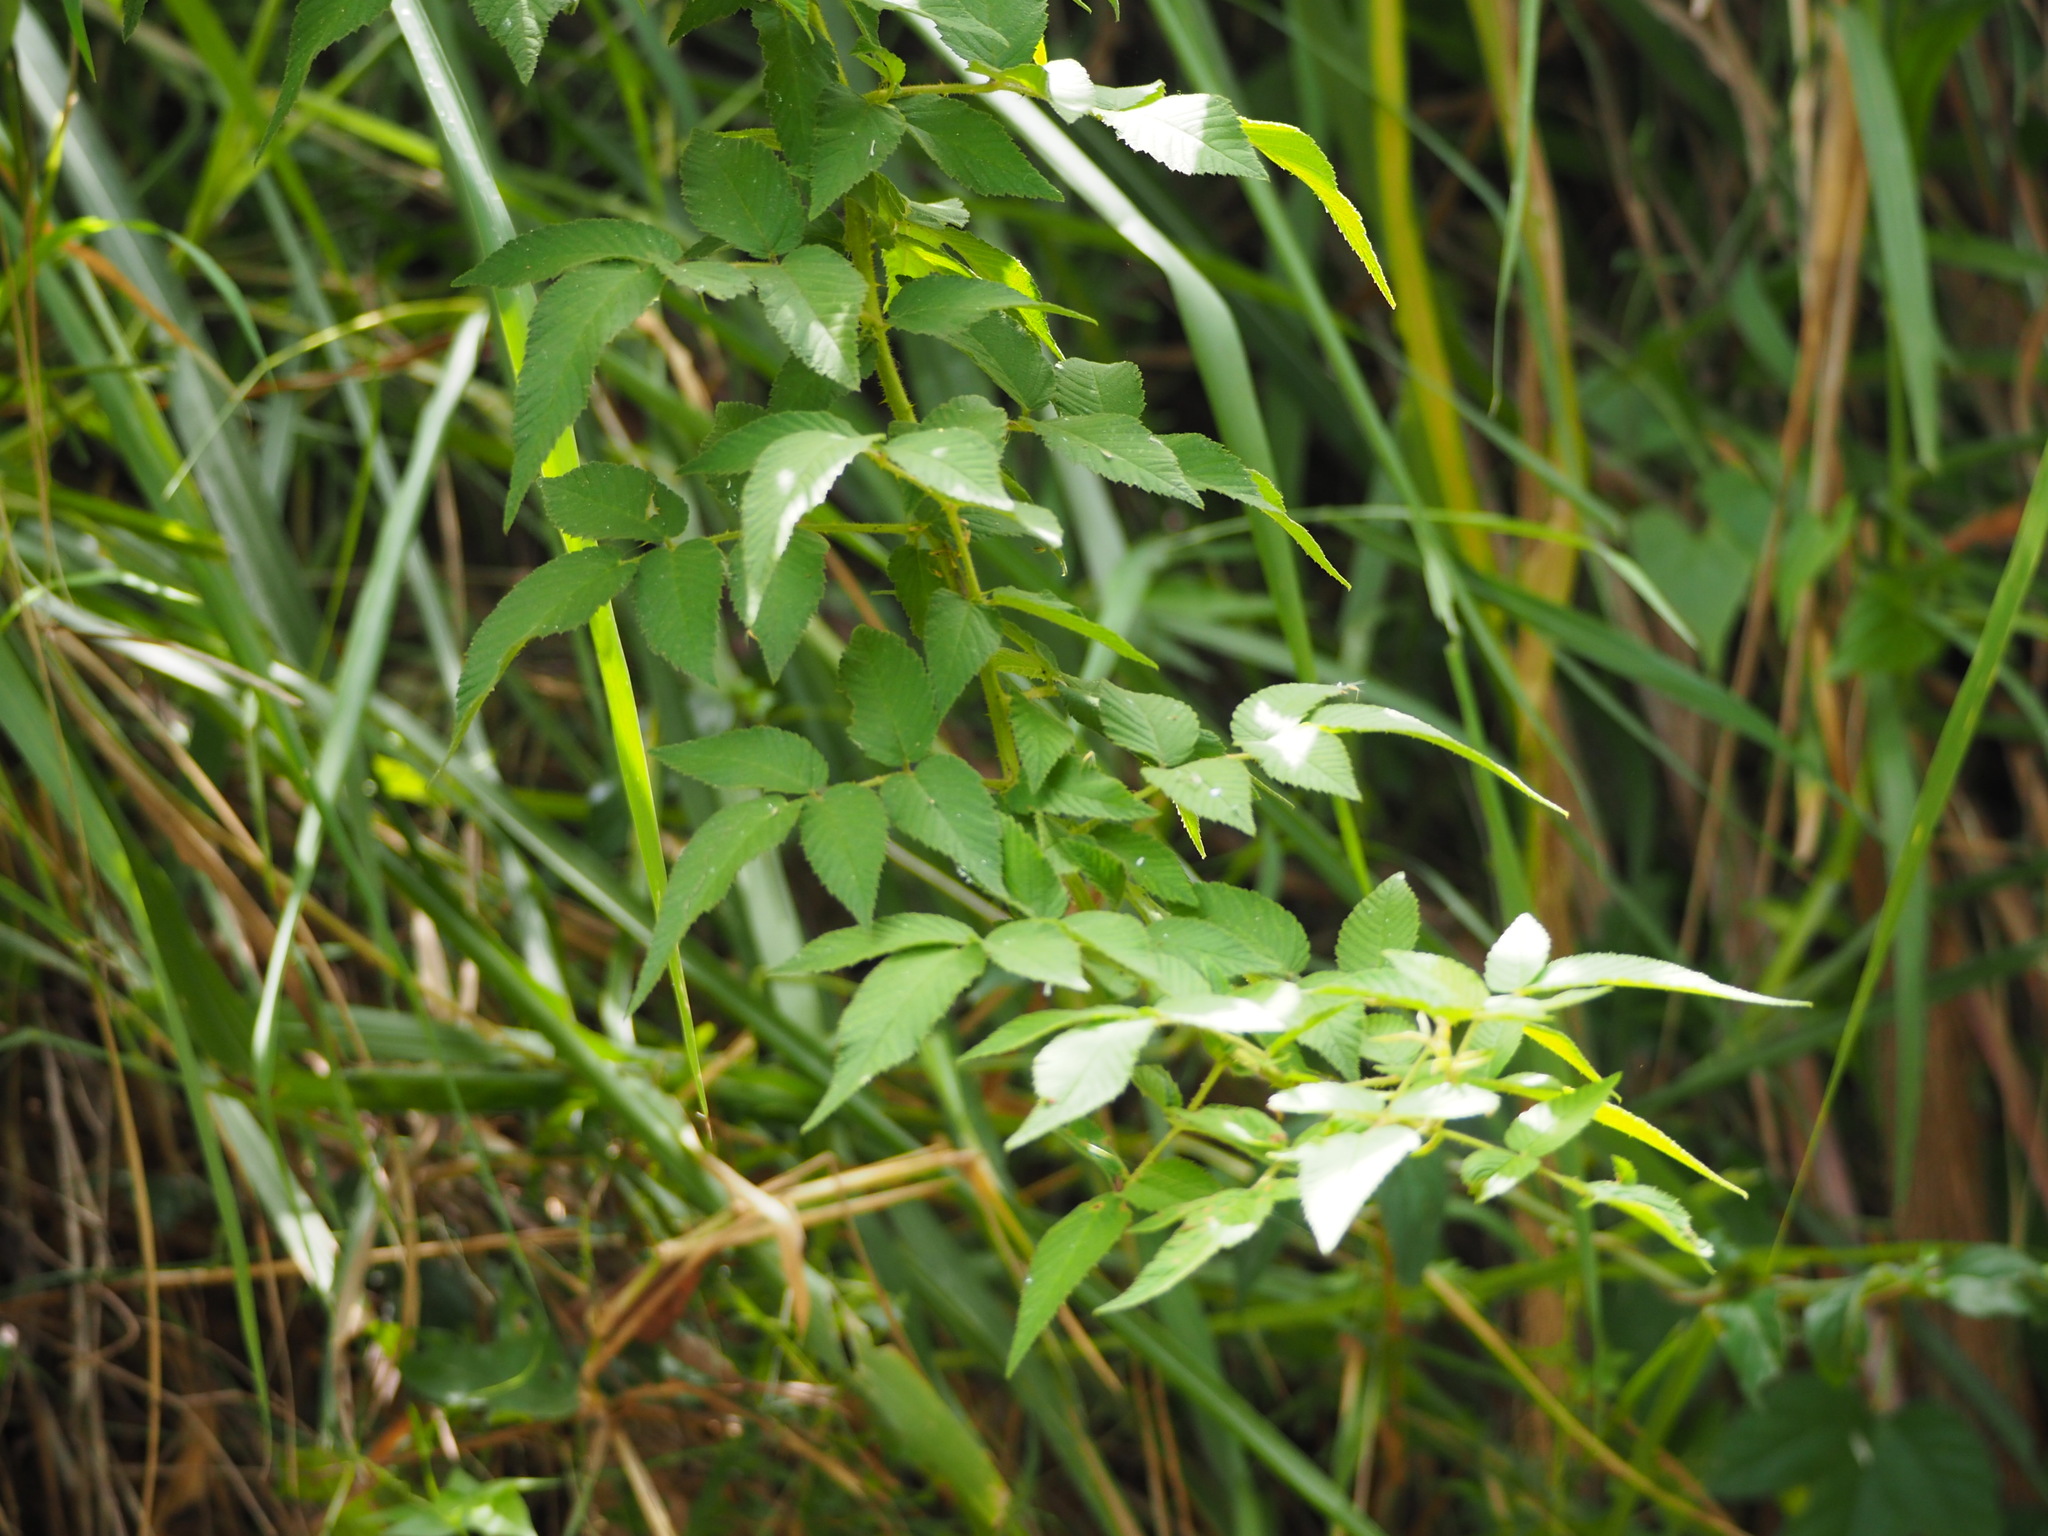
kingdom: Plantae
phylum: Tracheophyta
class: Magnoliopsida
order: Rosales
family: Rosaceae
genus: Rubus
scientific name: Rubus croceacanthus
